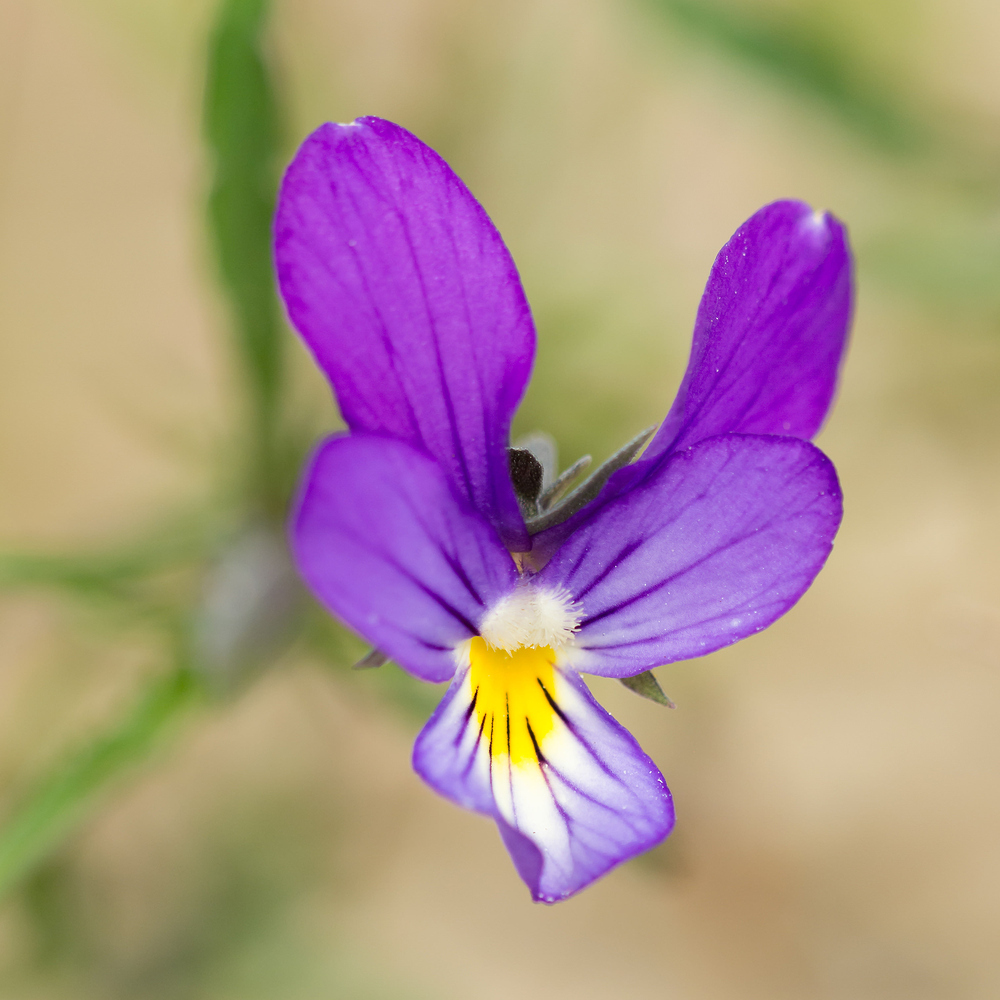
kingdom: Plantae
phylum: Tracheophyta
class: Magnoliopsida
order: Malpighiales
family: Violaceae
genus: Viola
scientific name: Viola tricolor
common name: Pansy
